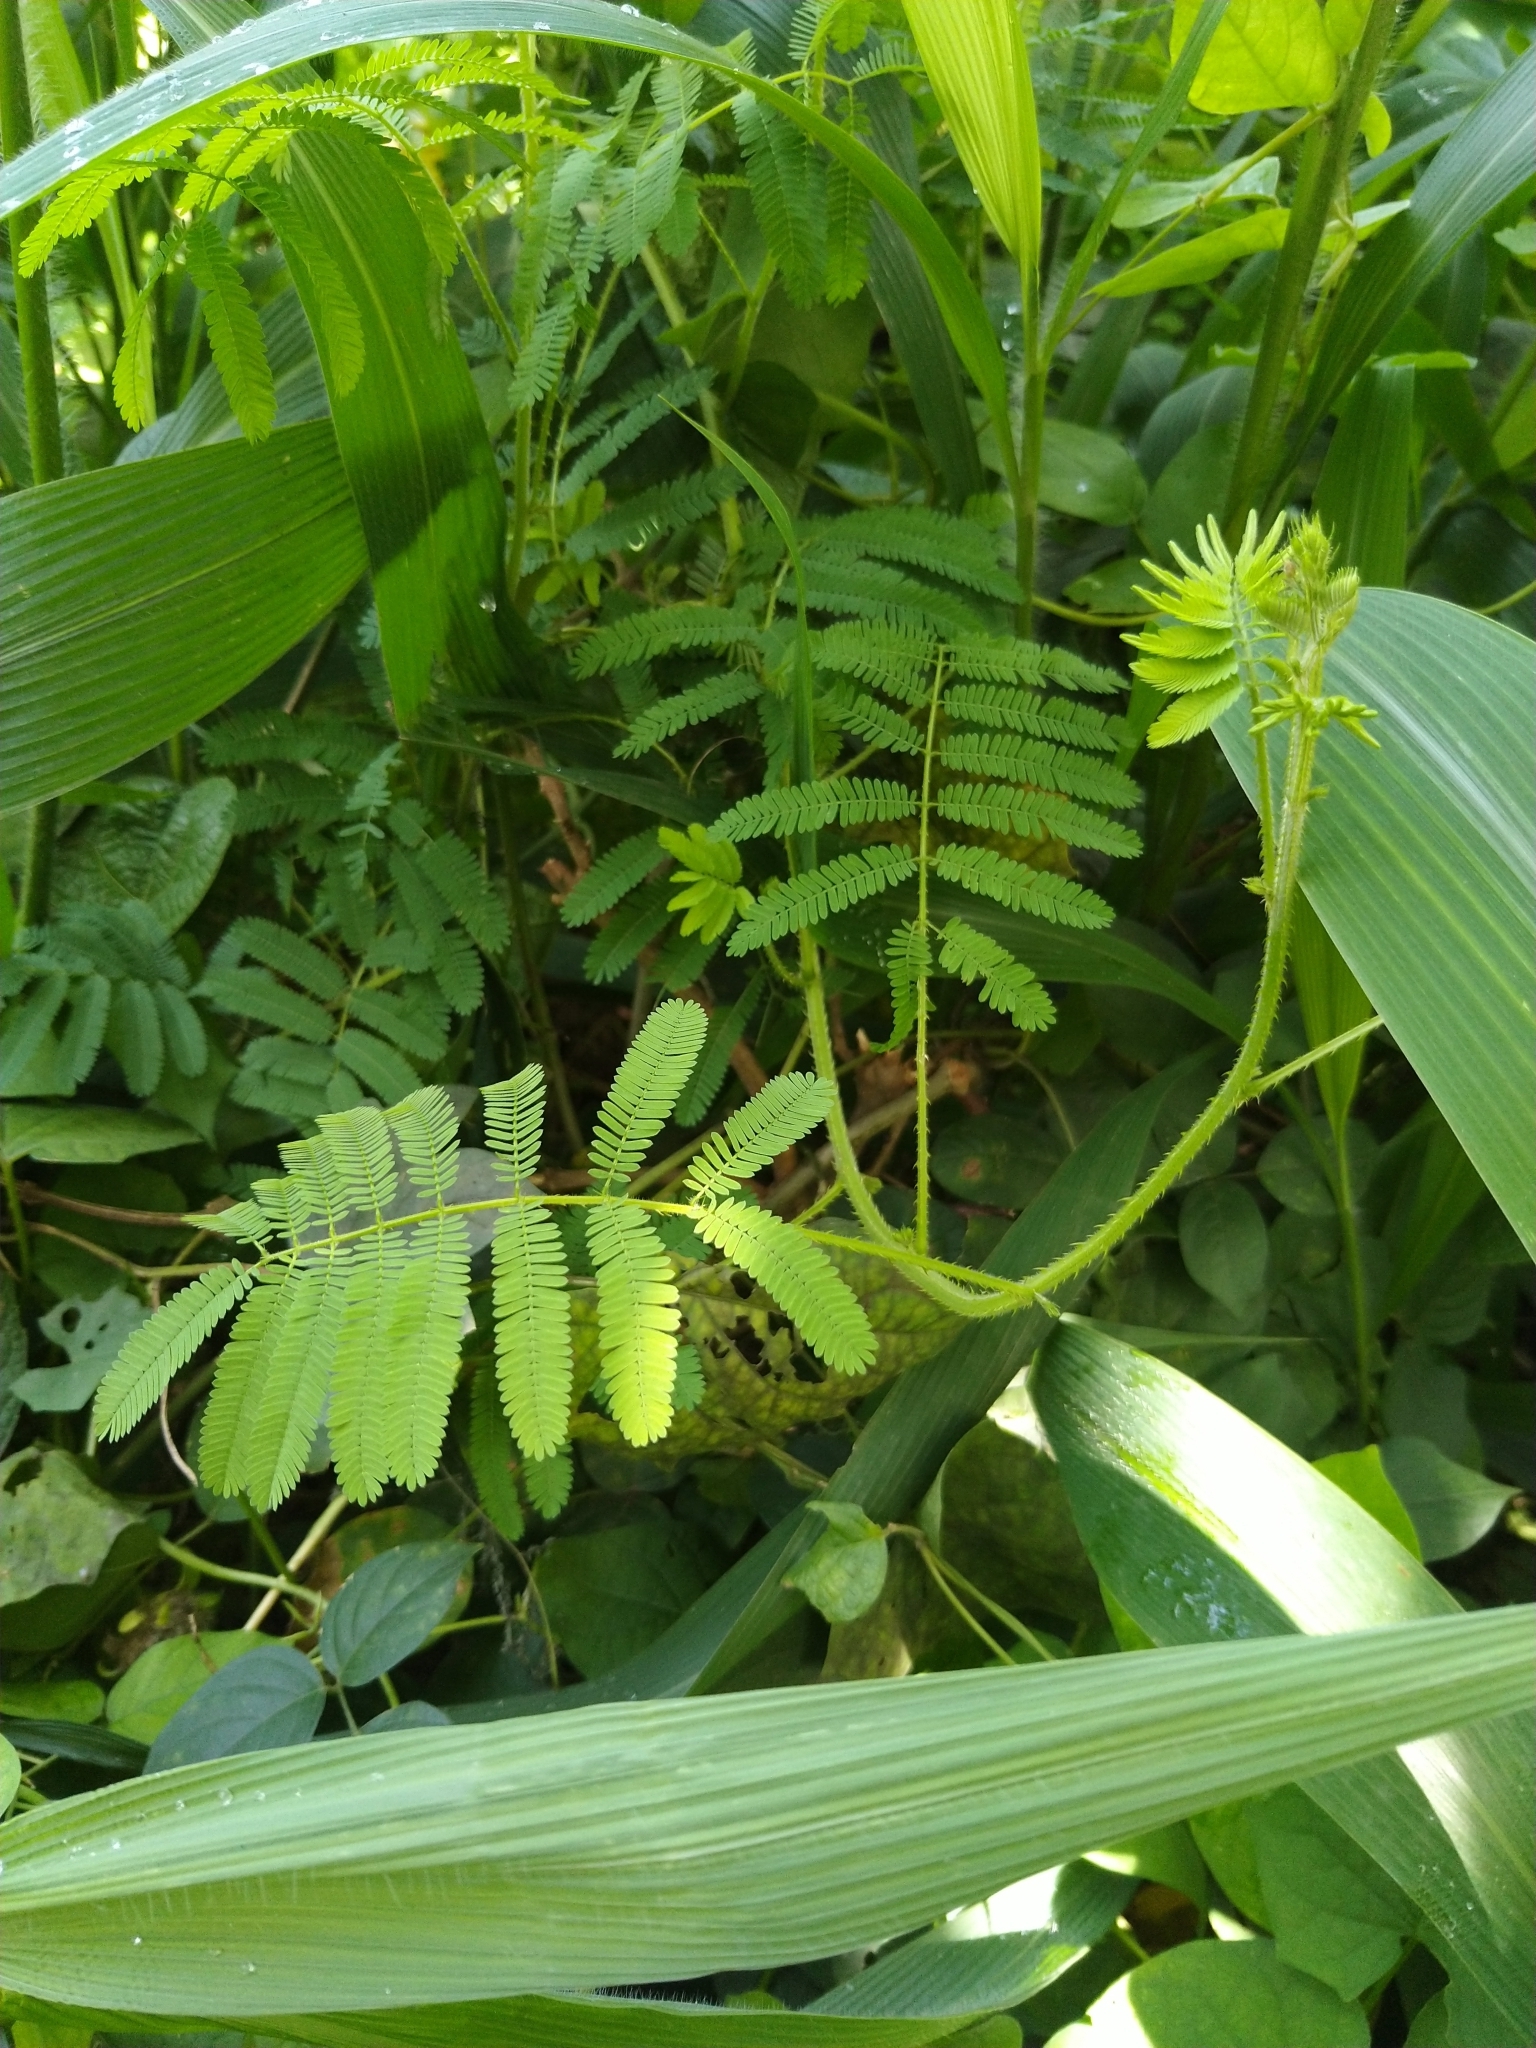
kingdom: Plantae
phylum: Tracheophyta
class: Magnoliopsida
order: Fabales
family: Fabaceae
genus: Mimosa
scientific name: Mimosa diplotricha
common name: Giant sensitive-plant
